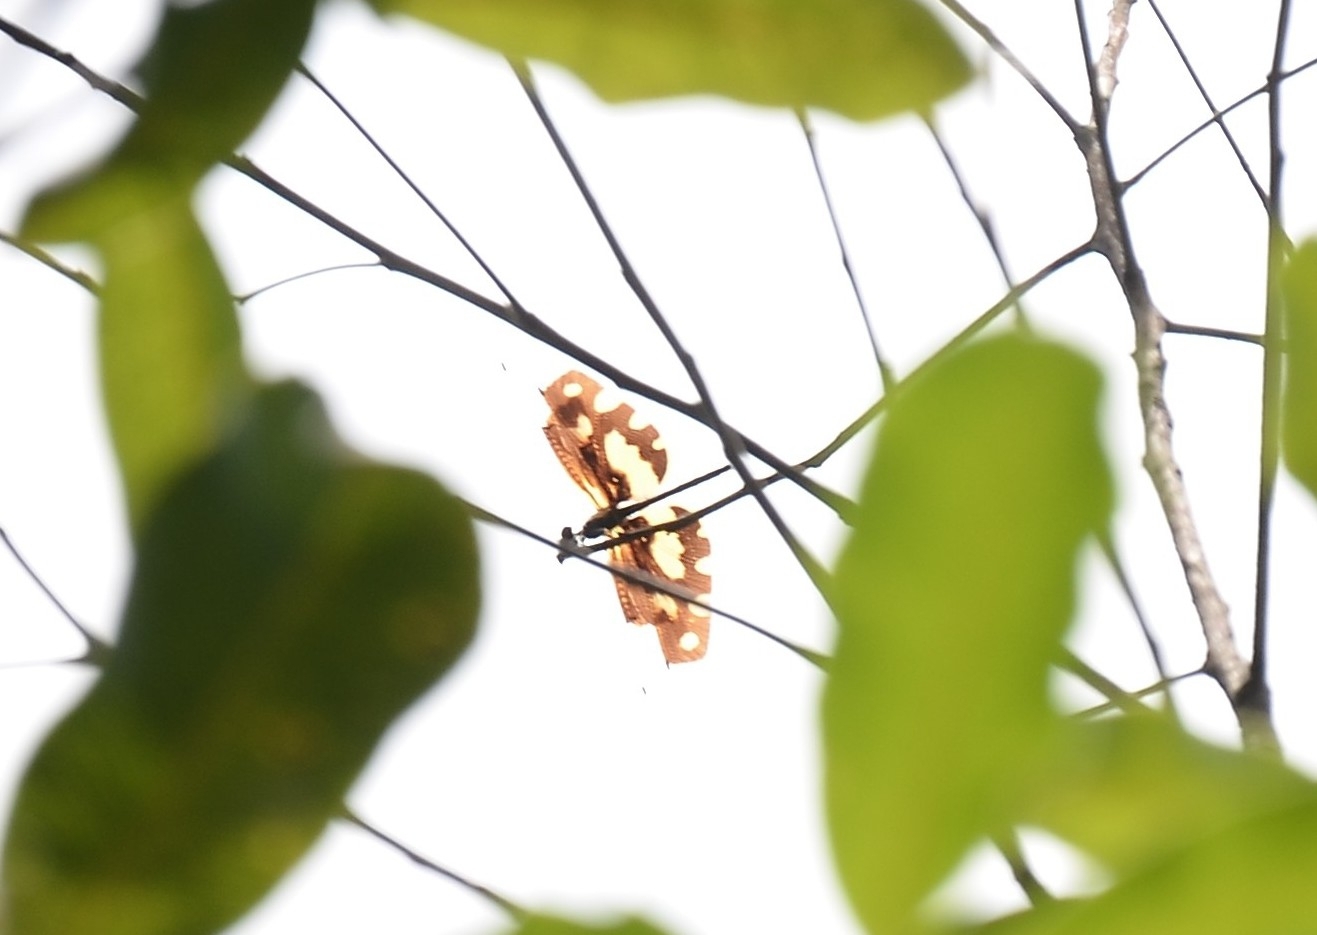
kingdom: Animalia
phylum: Arthropoda
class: Insecta
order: Odonata
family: Libellulidae
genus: Rhyothemis
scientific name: Rhyothemis variegata
